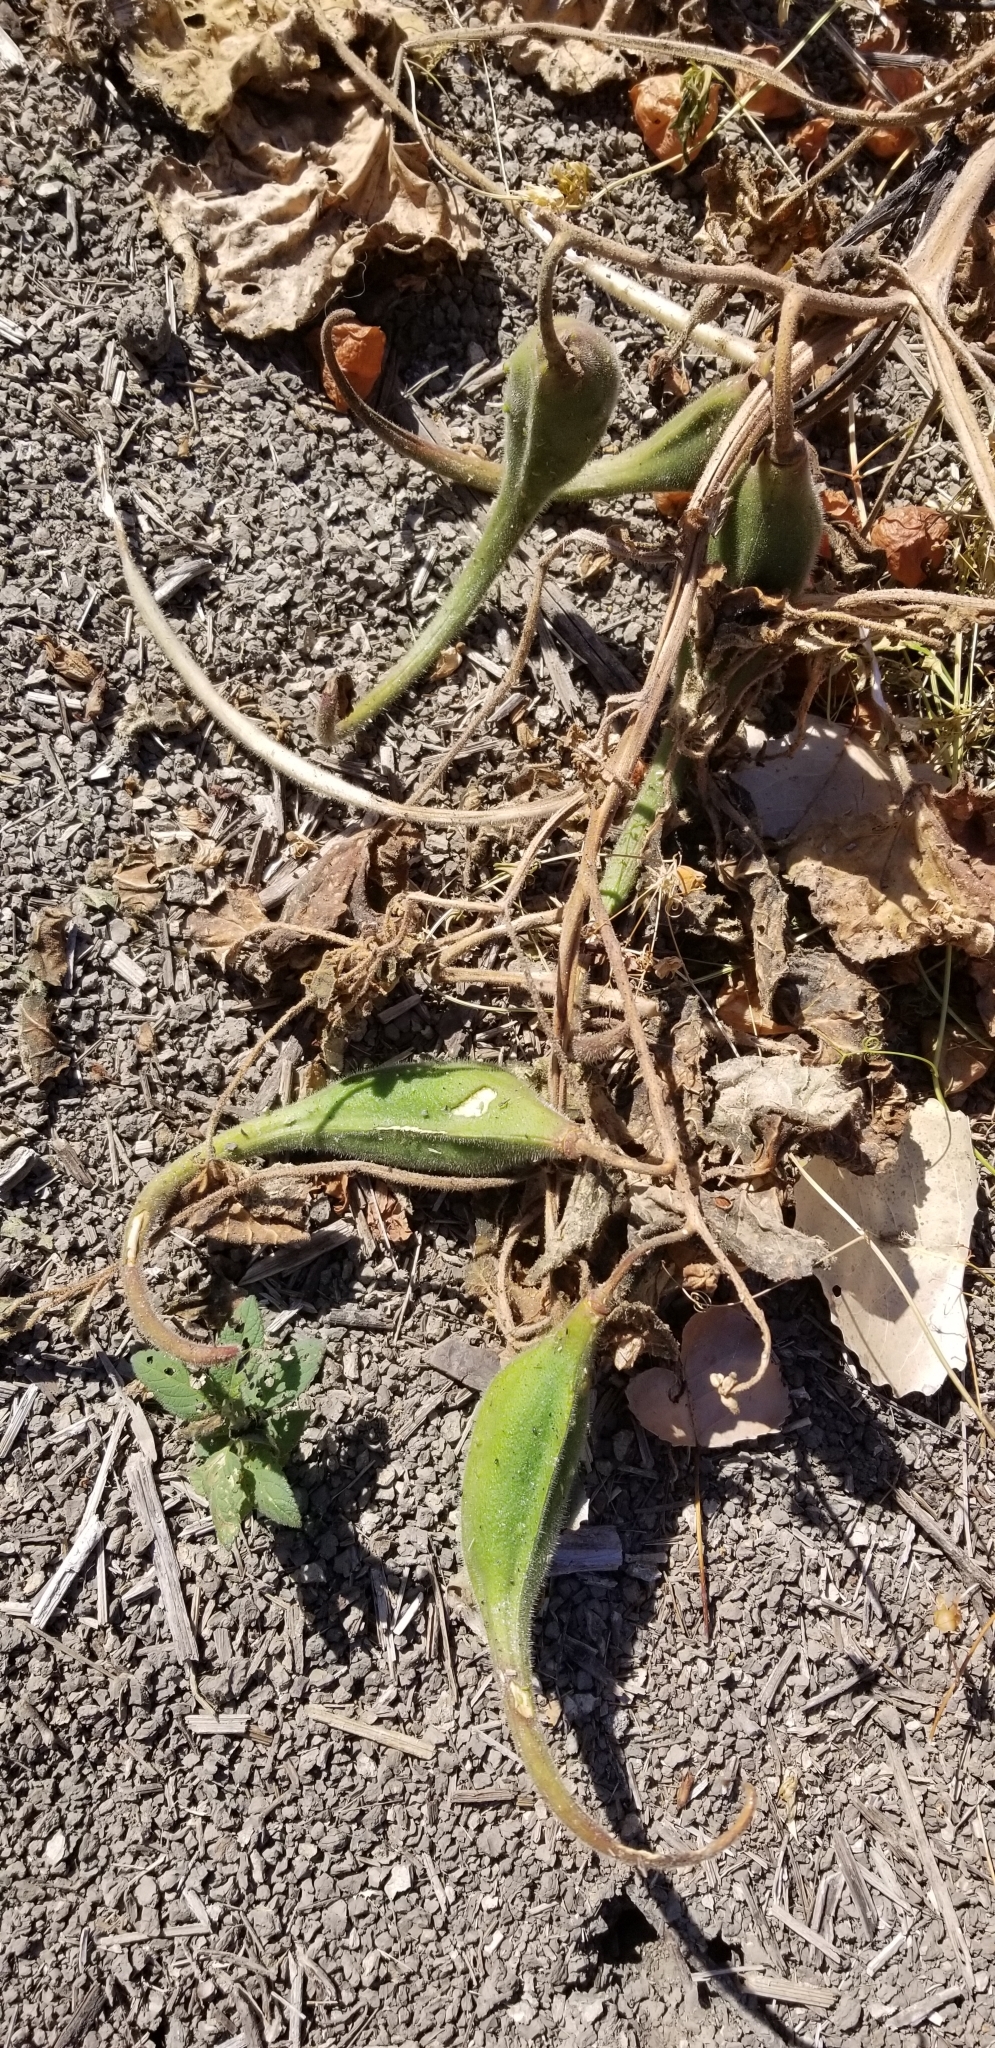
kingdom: Plantae
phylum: Tracheophyta
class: Magnoliopsida
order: Lamiales
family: Martyniaceae
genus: Proboscidea
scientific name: Proboscidea louisianica
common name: Elephant tusks
